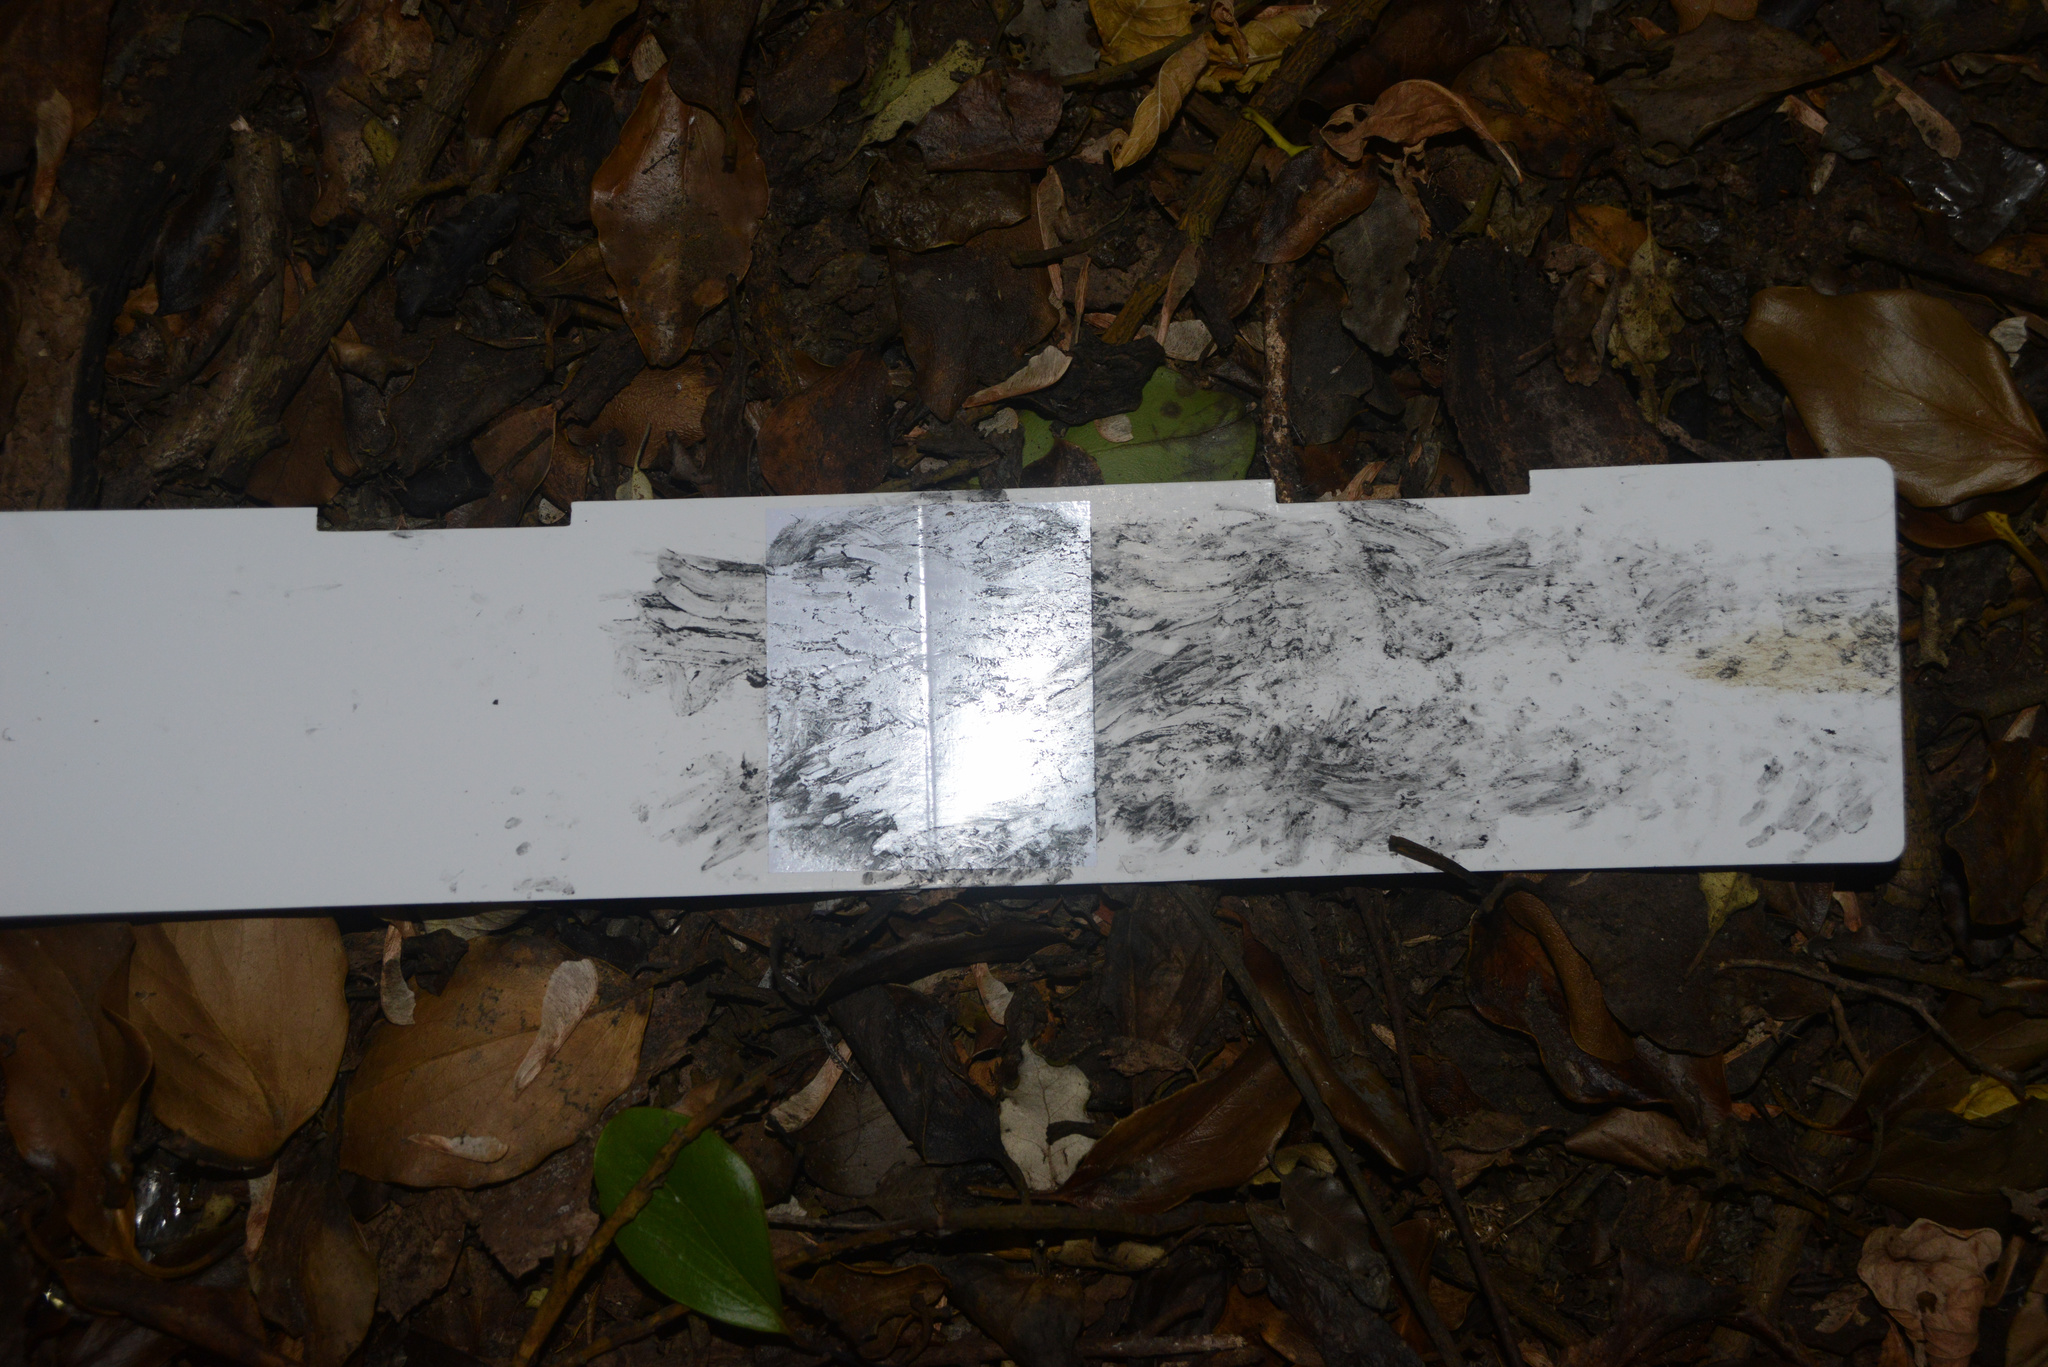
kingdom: Animalia
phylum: Chordata
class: Mammalia
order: Erinaceomorpha
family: Erinaceidae
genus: Erinaceus
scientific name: Erinaceus europaeus
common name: West european hedgehog
